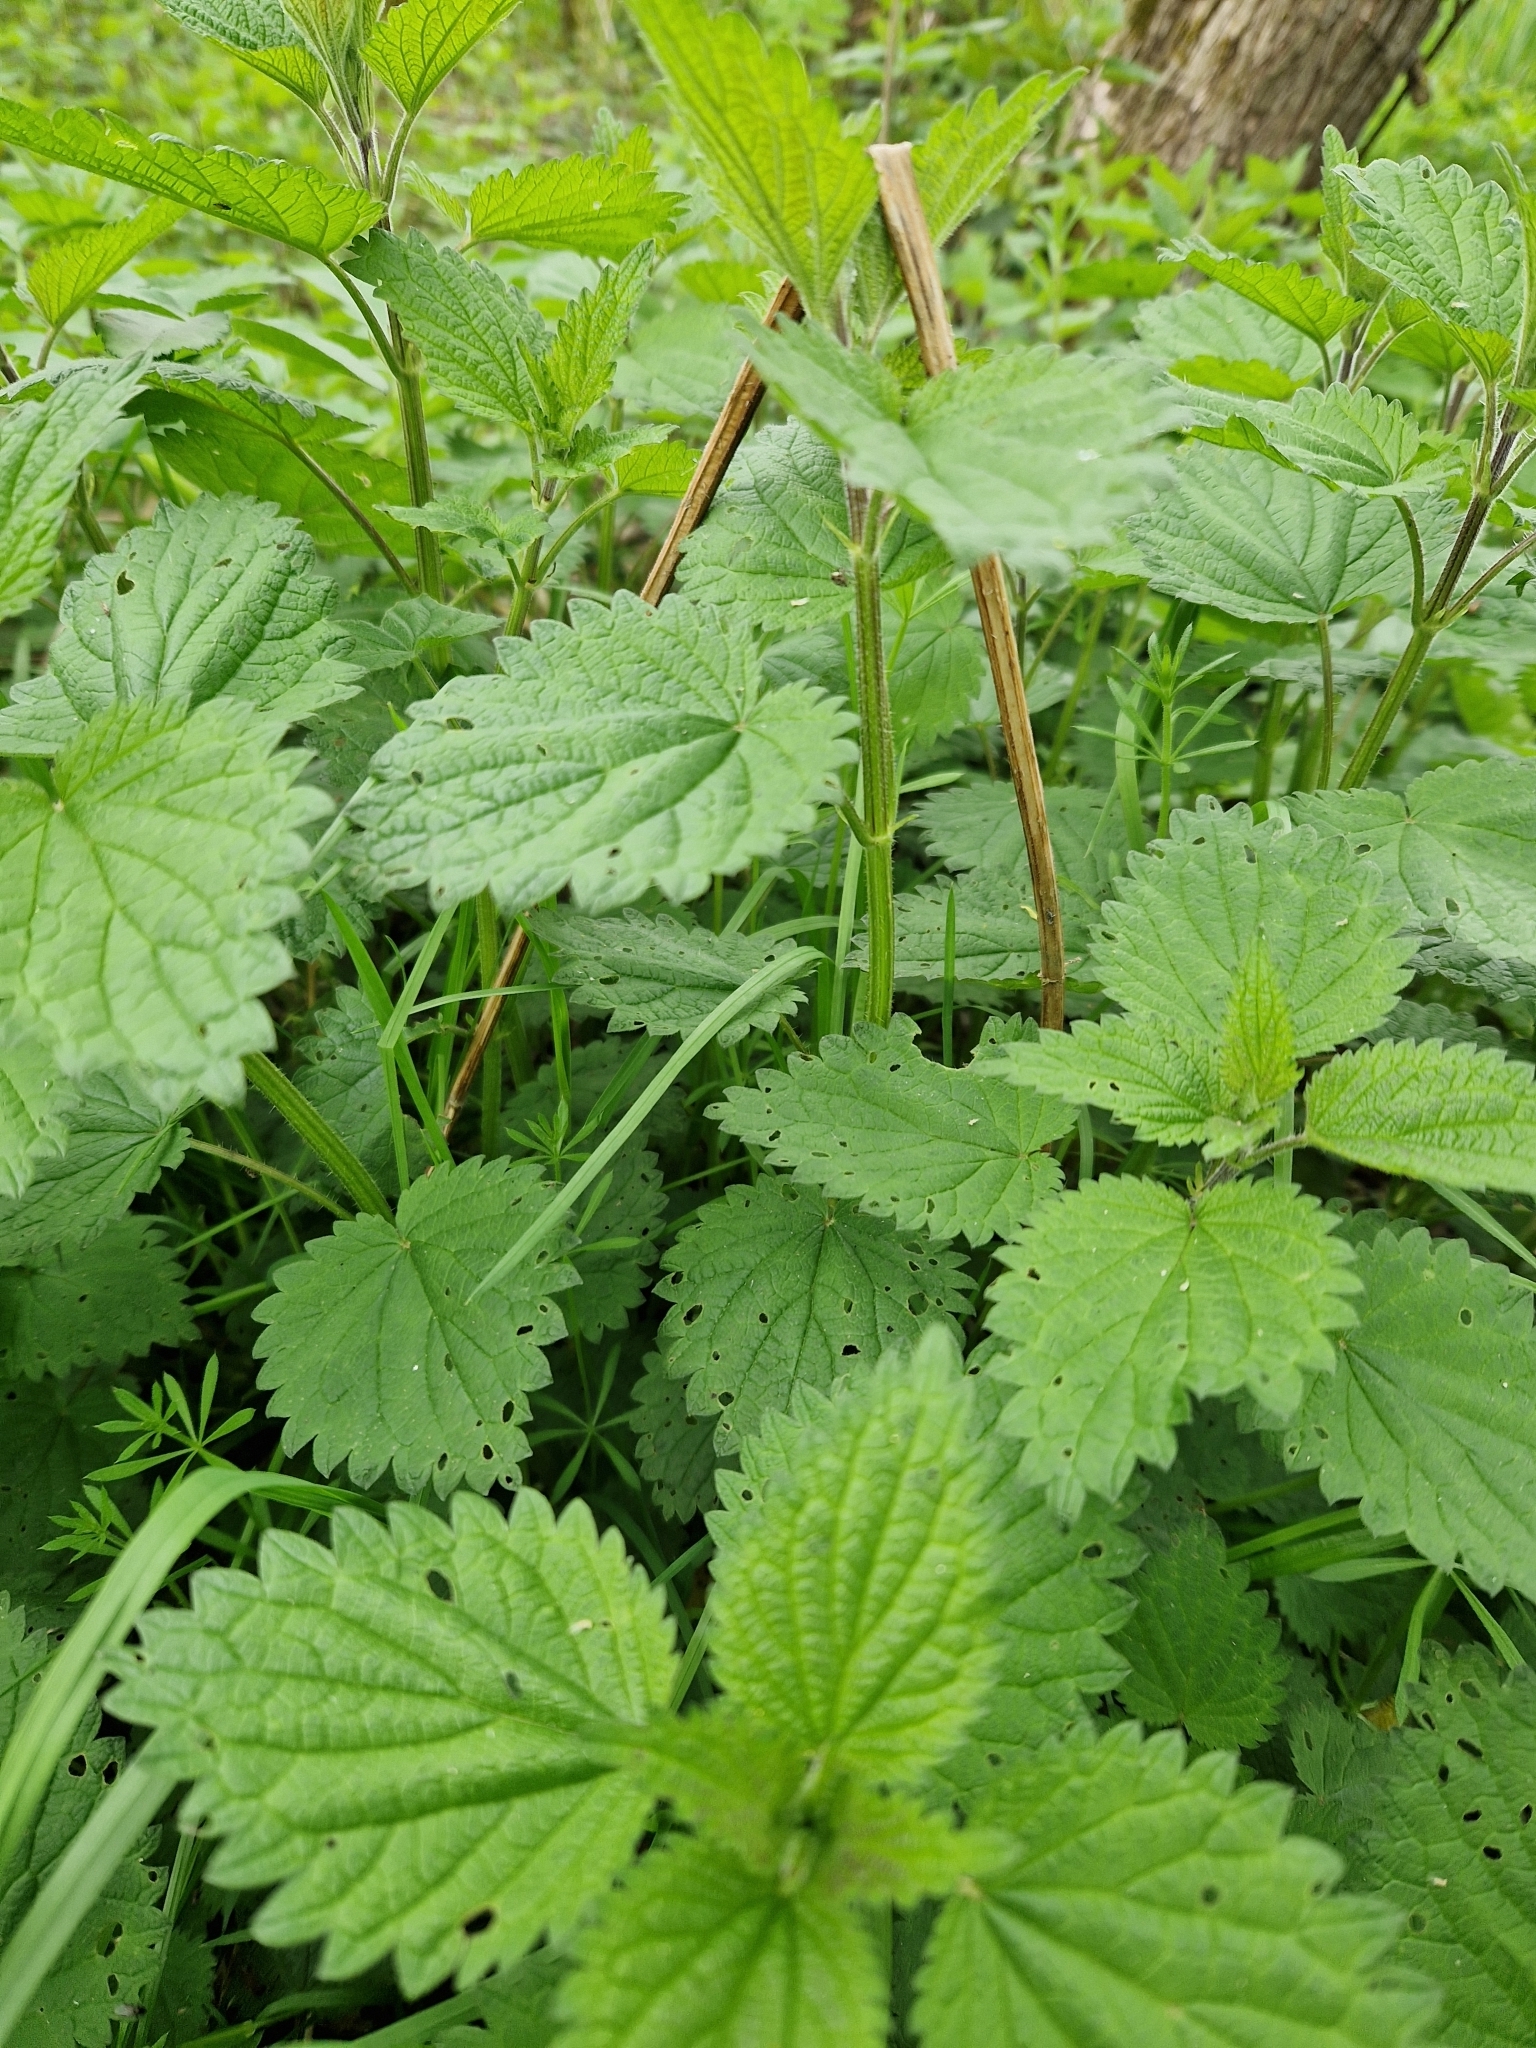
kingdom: Plantae
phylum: Tracheophyta
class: Magnoliopsida
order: Rosales
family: Urticaceae
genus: Urtica
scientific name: Urtica dioica
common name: Common nettle
